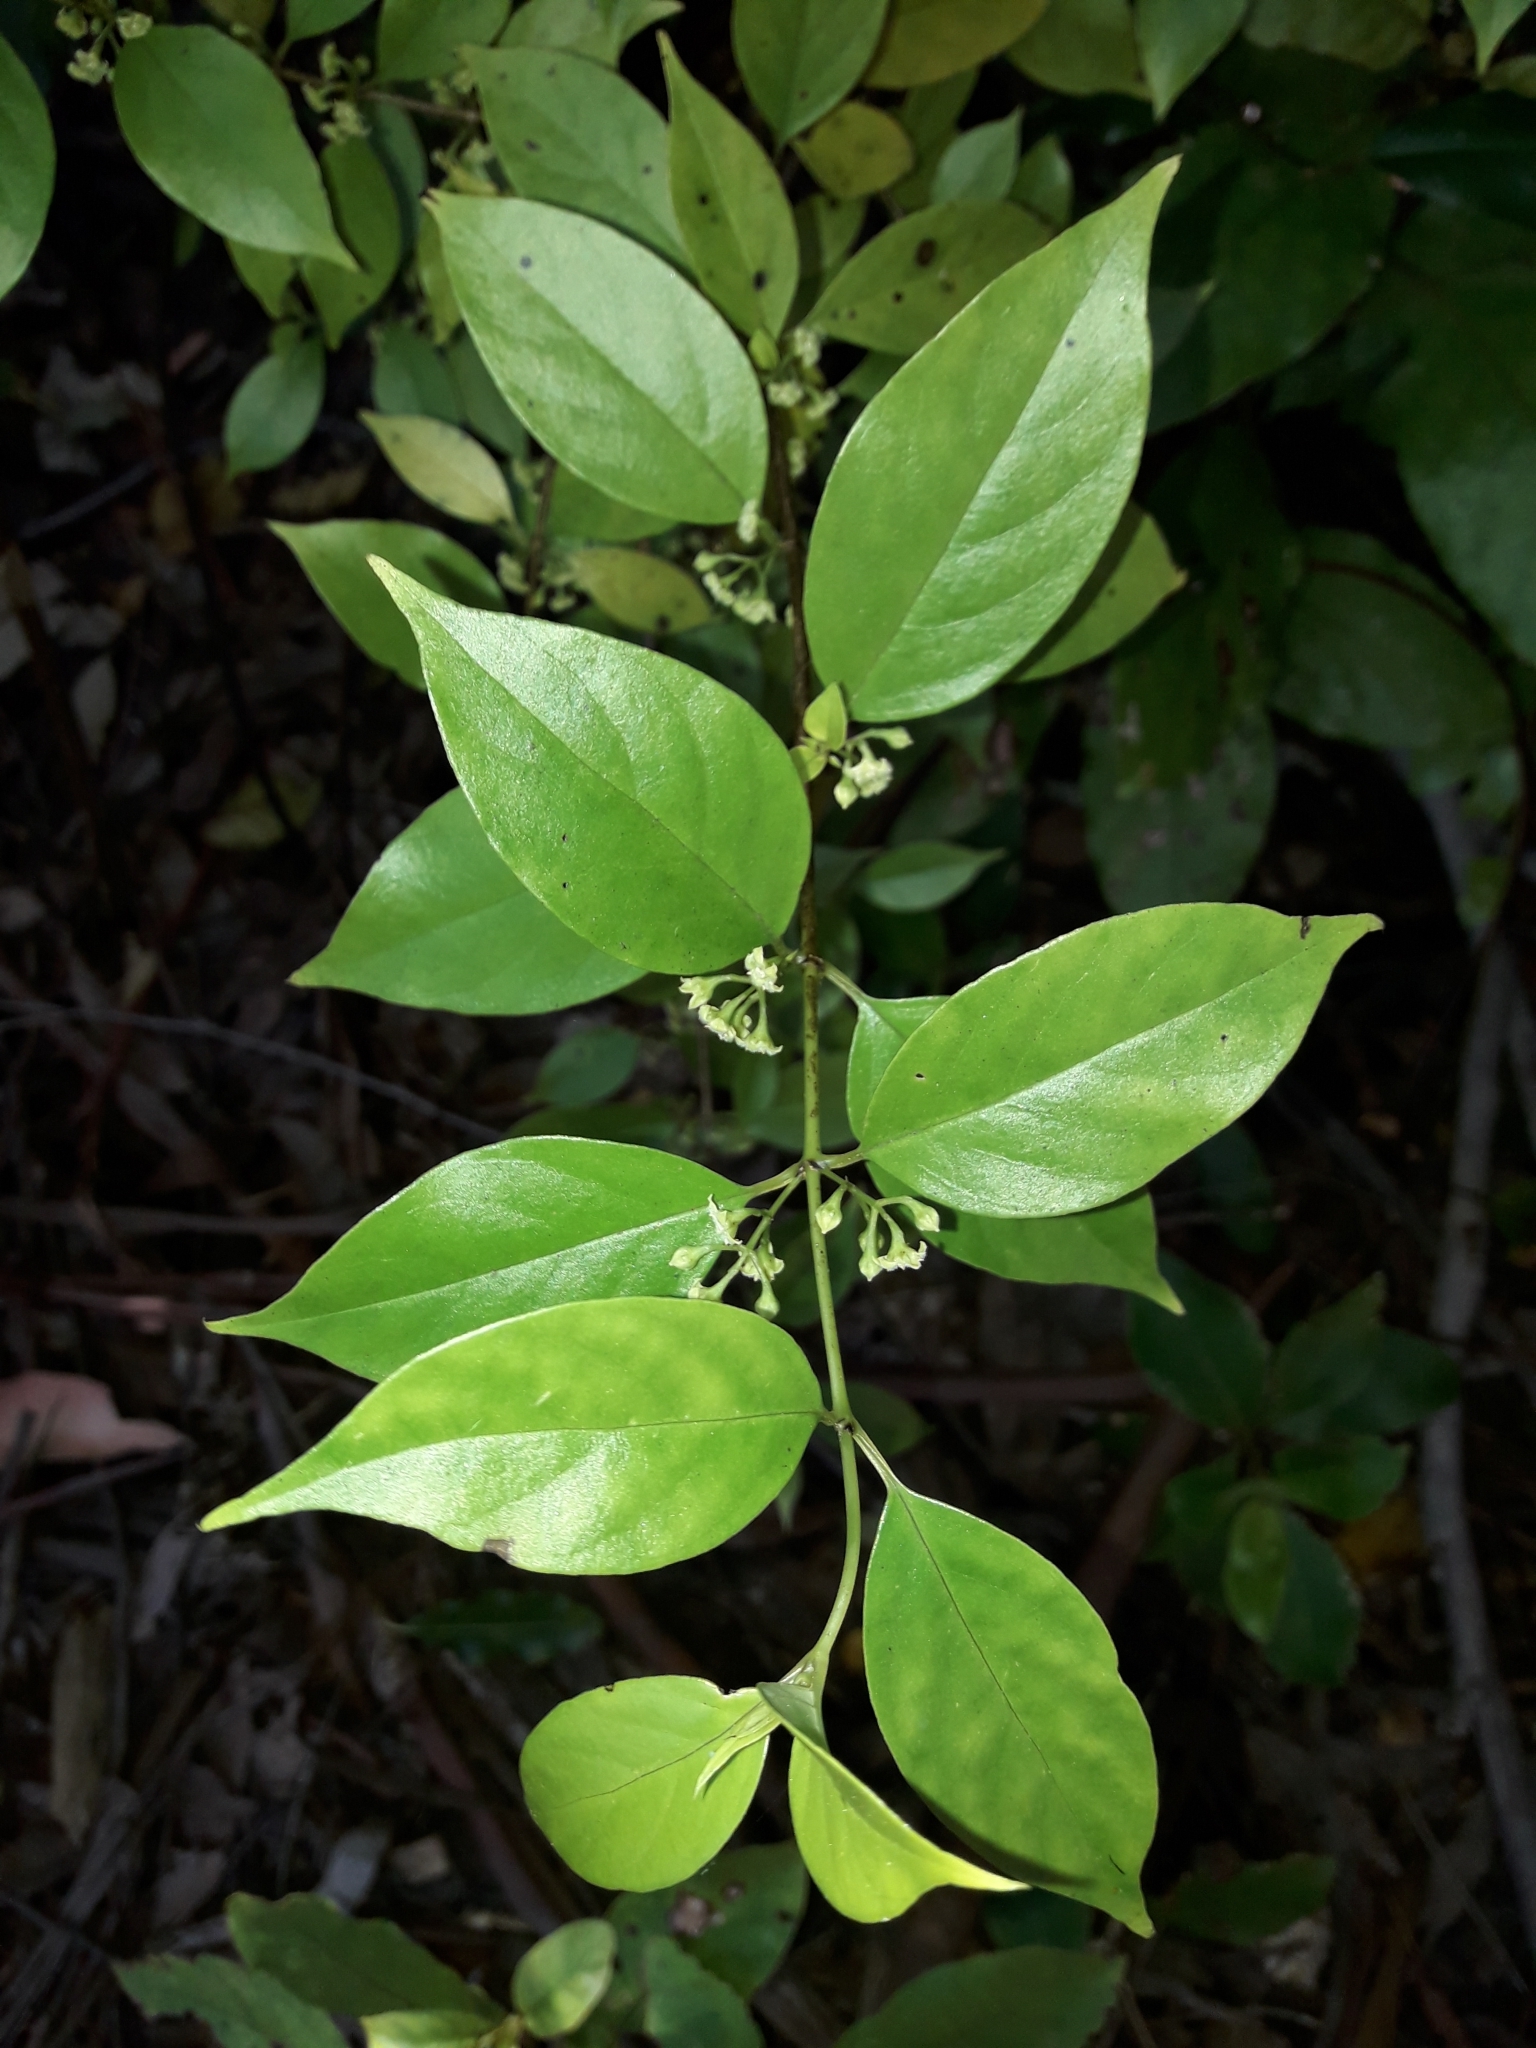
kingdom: Plantae
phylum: Tracheophyta
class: Magnoliopsida
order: Gentianales
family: Loganiaceae
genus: Geniostoma
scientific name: Geniostoma ligustrifolium
